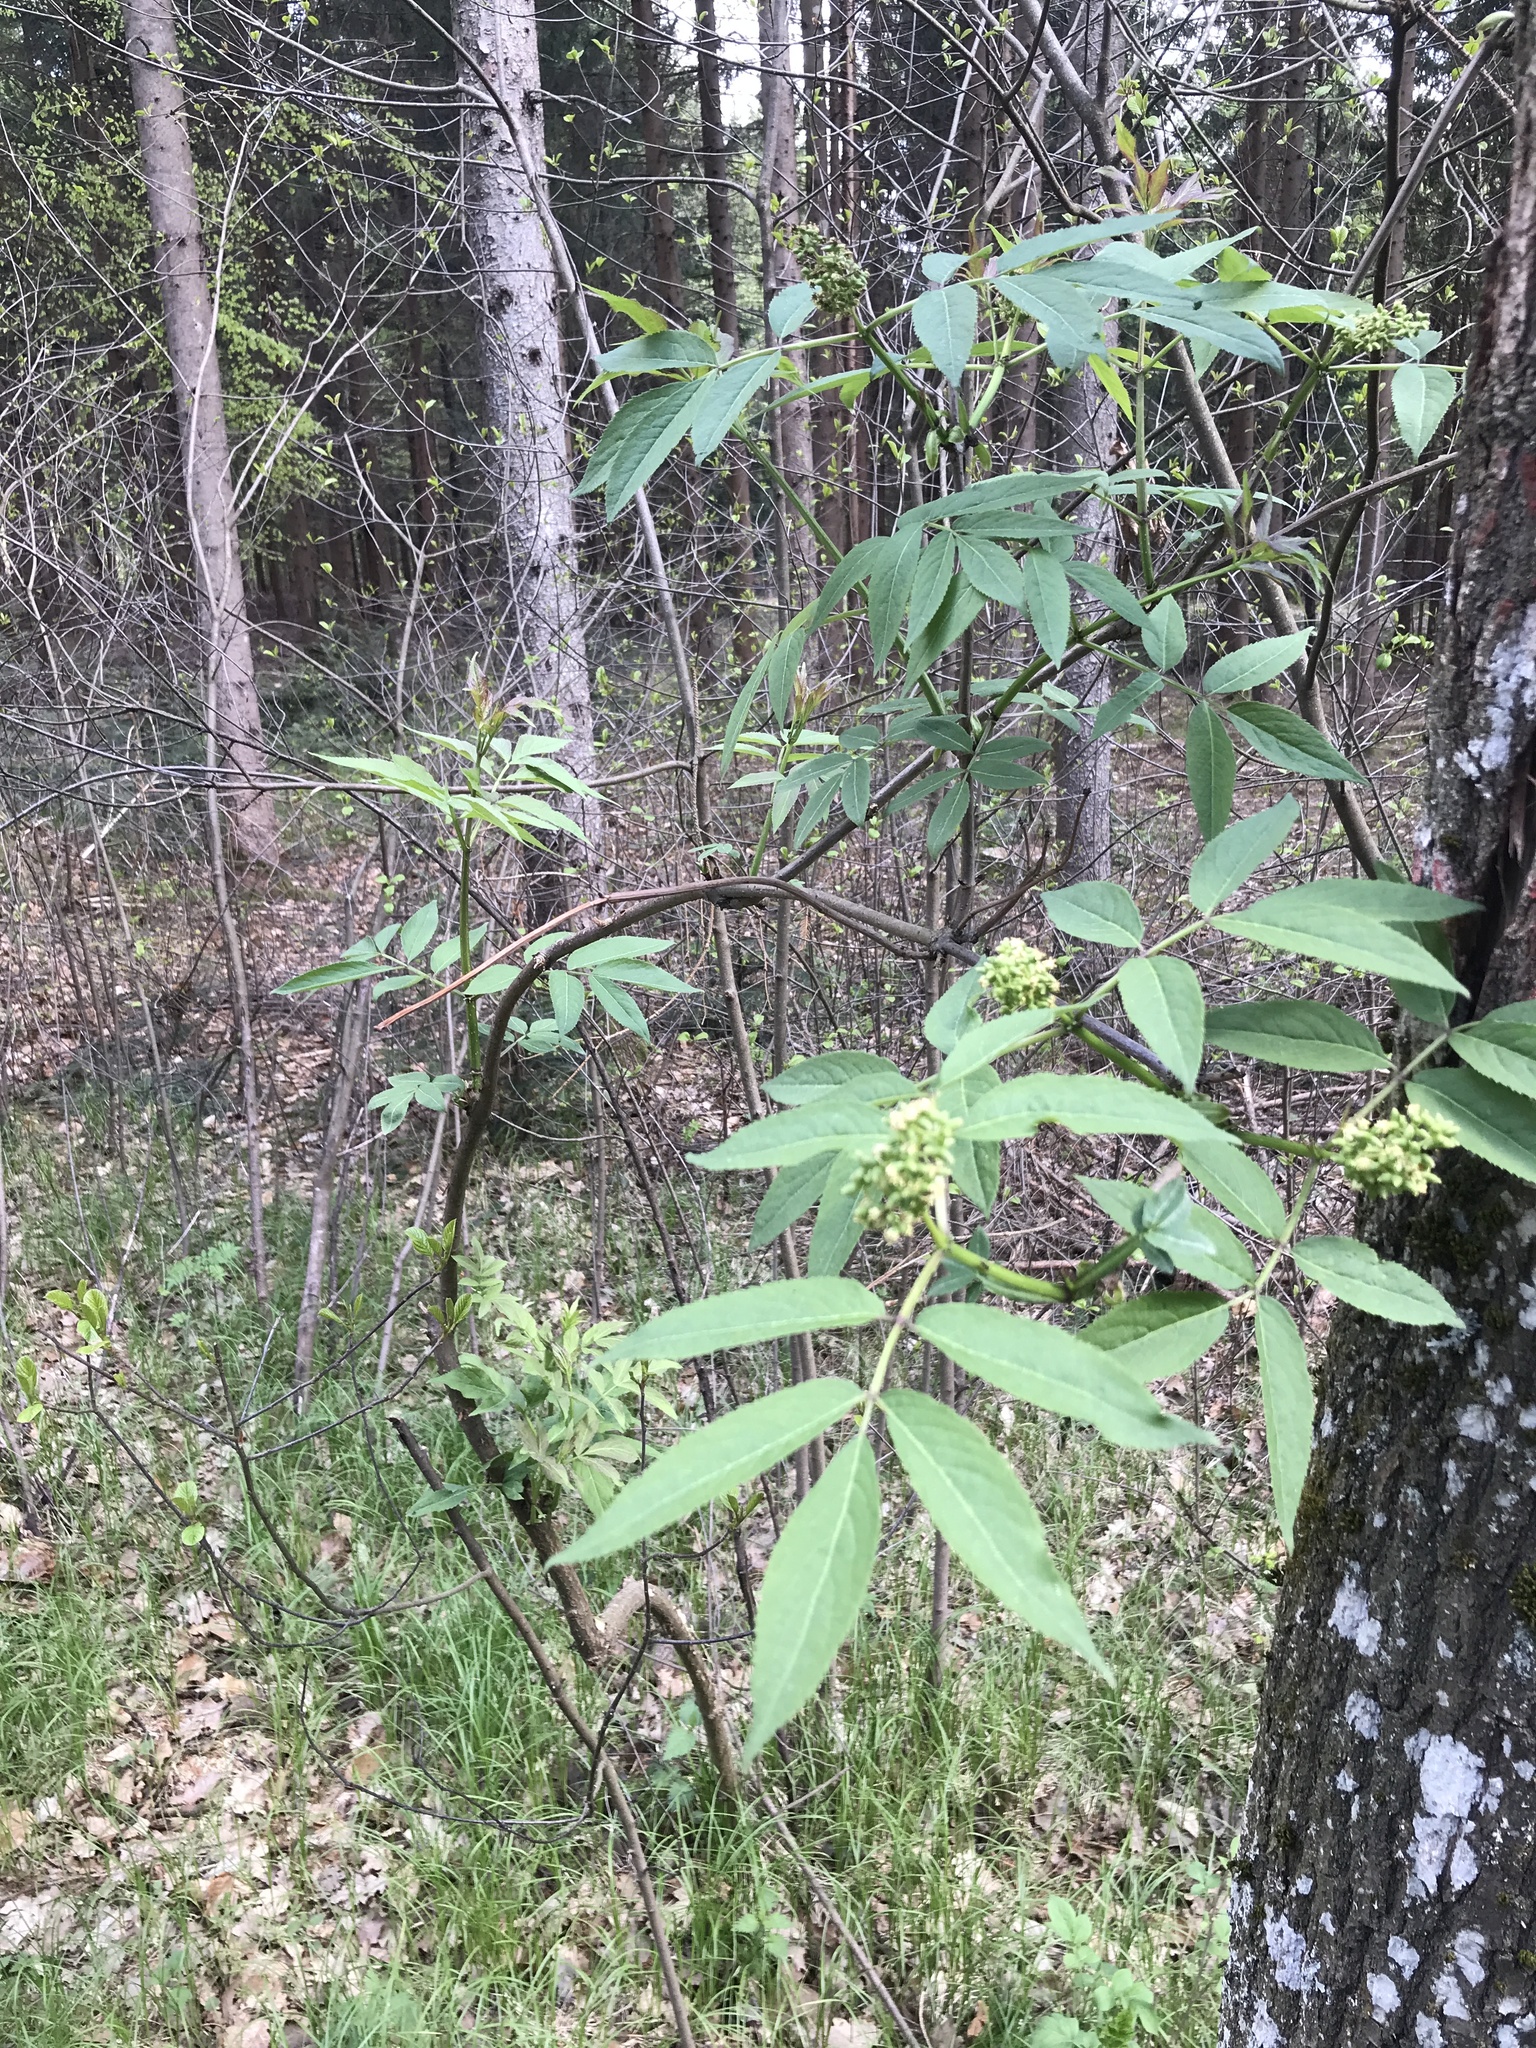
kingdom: Plantae
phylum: Tracheophyta
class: Magnoliopsida
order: Dipsacales
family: Viburnaceae
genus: Sambucus
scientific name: Sambucus racemosa
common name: Red-berried elder
